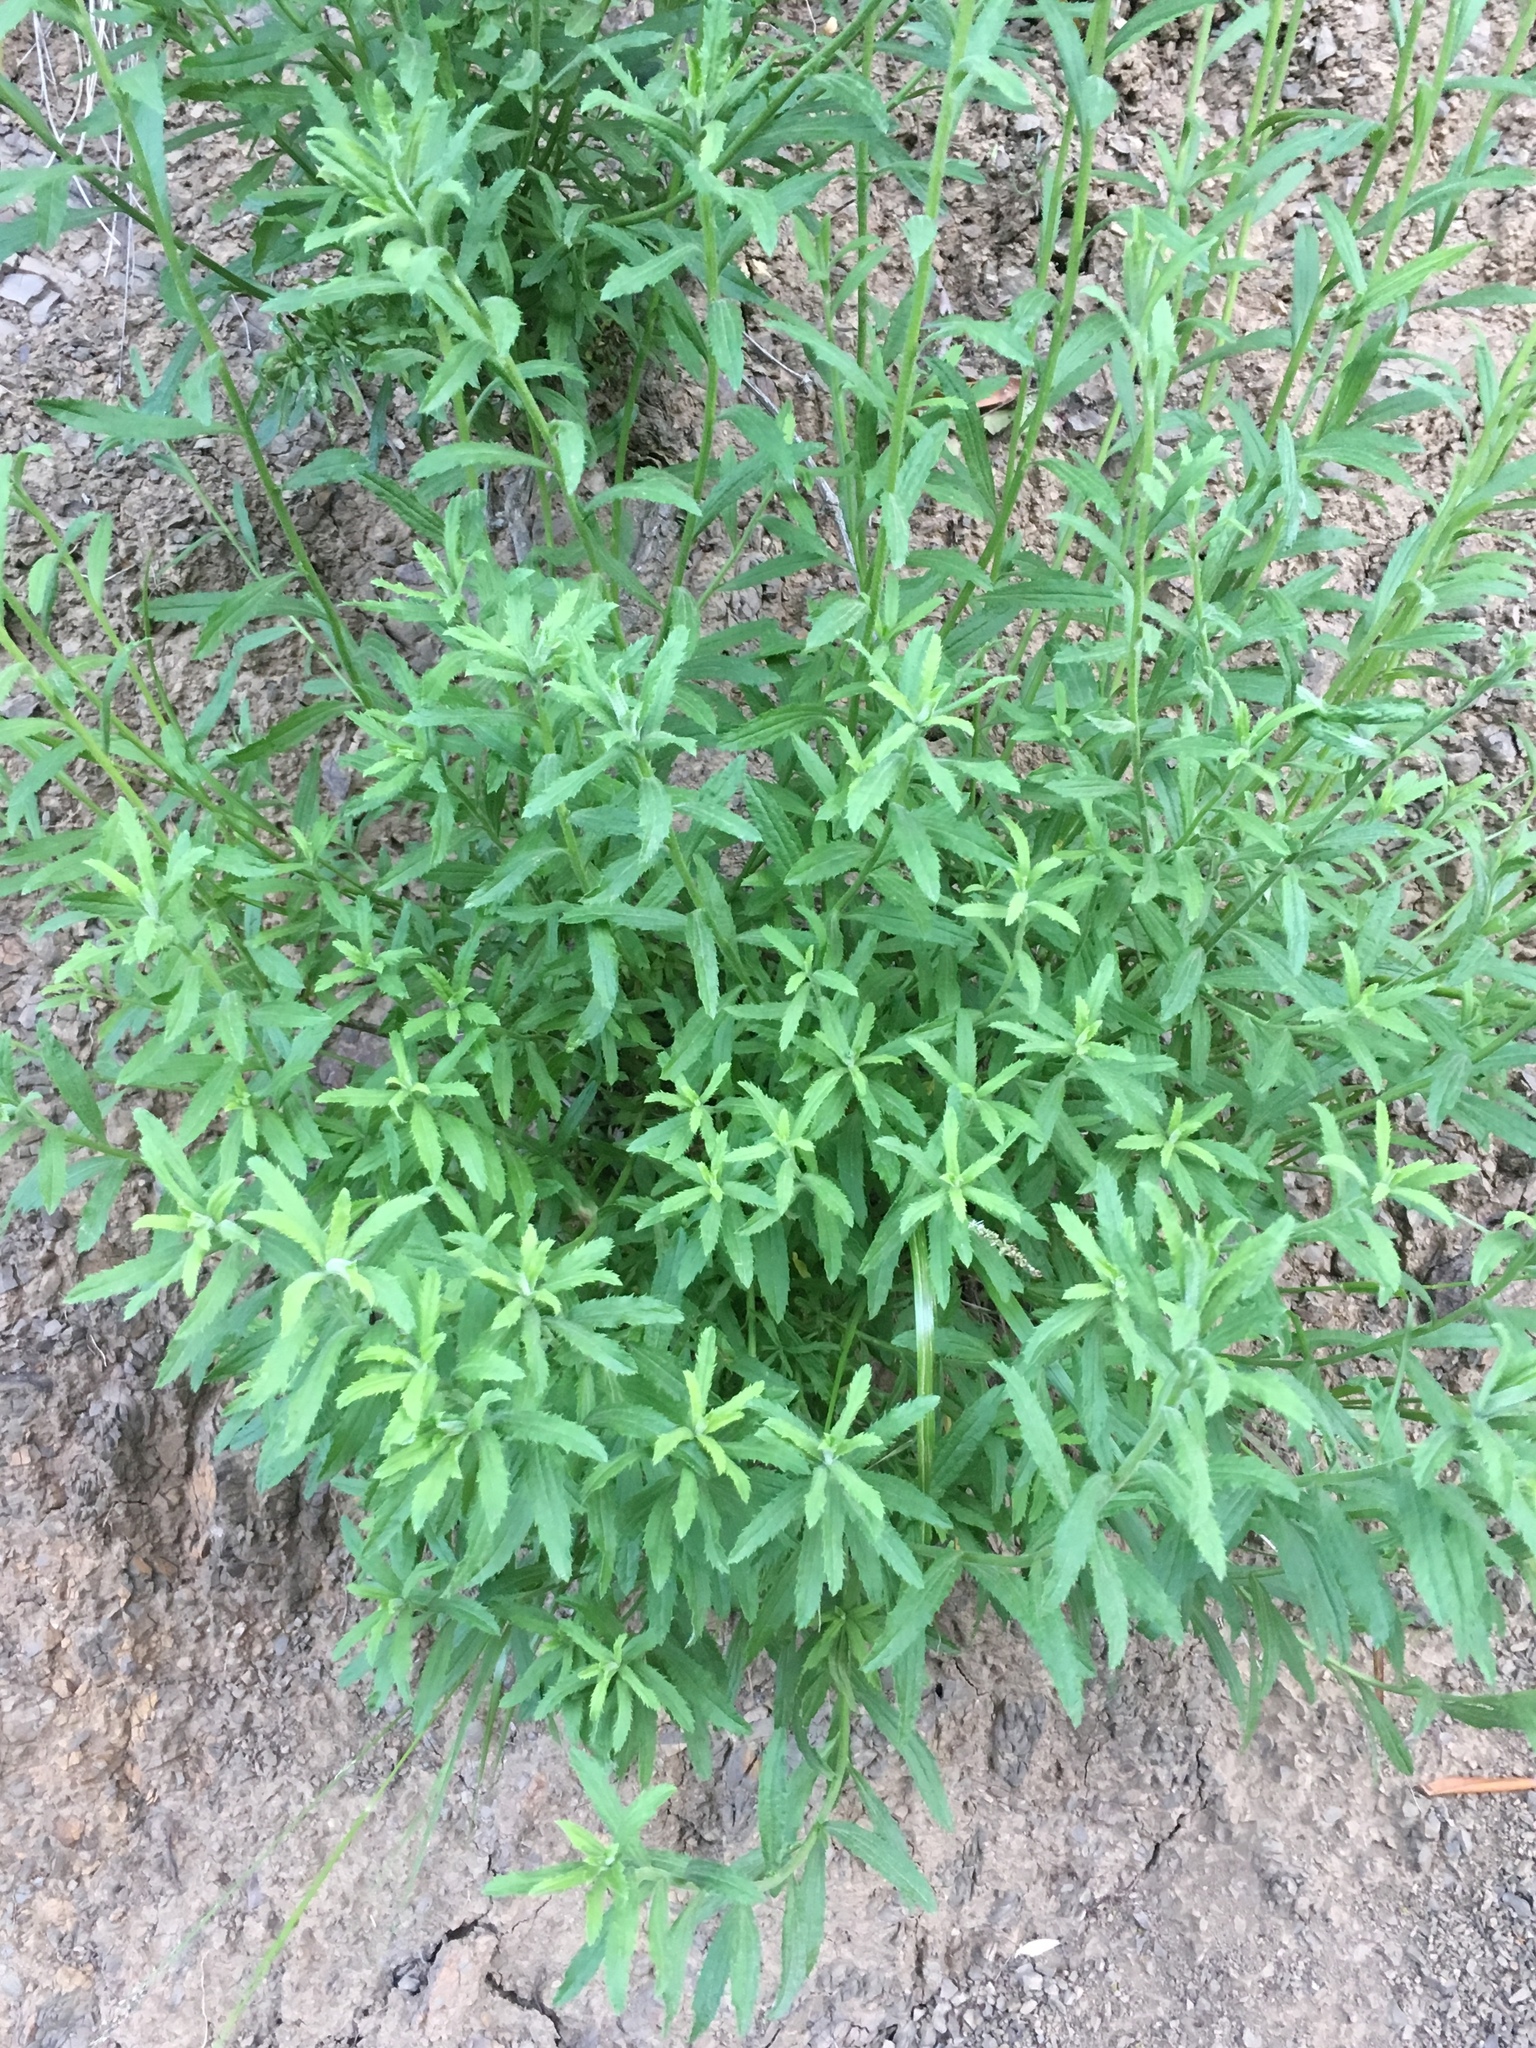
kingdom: Plantae
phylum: Tracheophyta
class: Magnoliopsida
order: Asterales
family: Asteraceae
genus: Baccharis
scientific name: Baccharis plummerae
